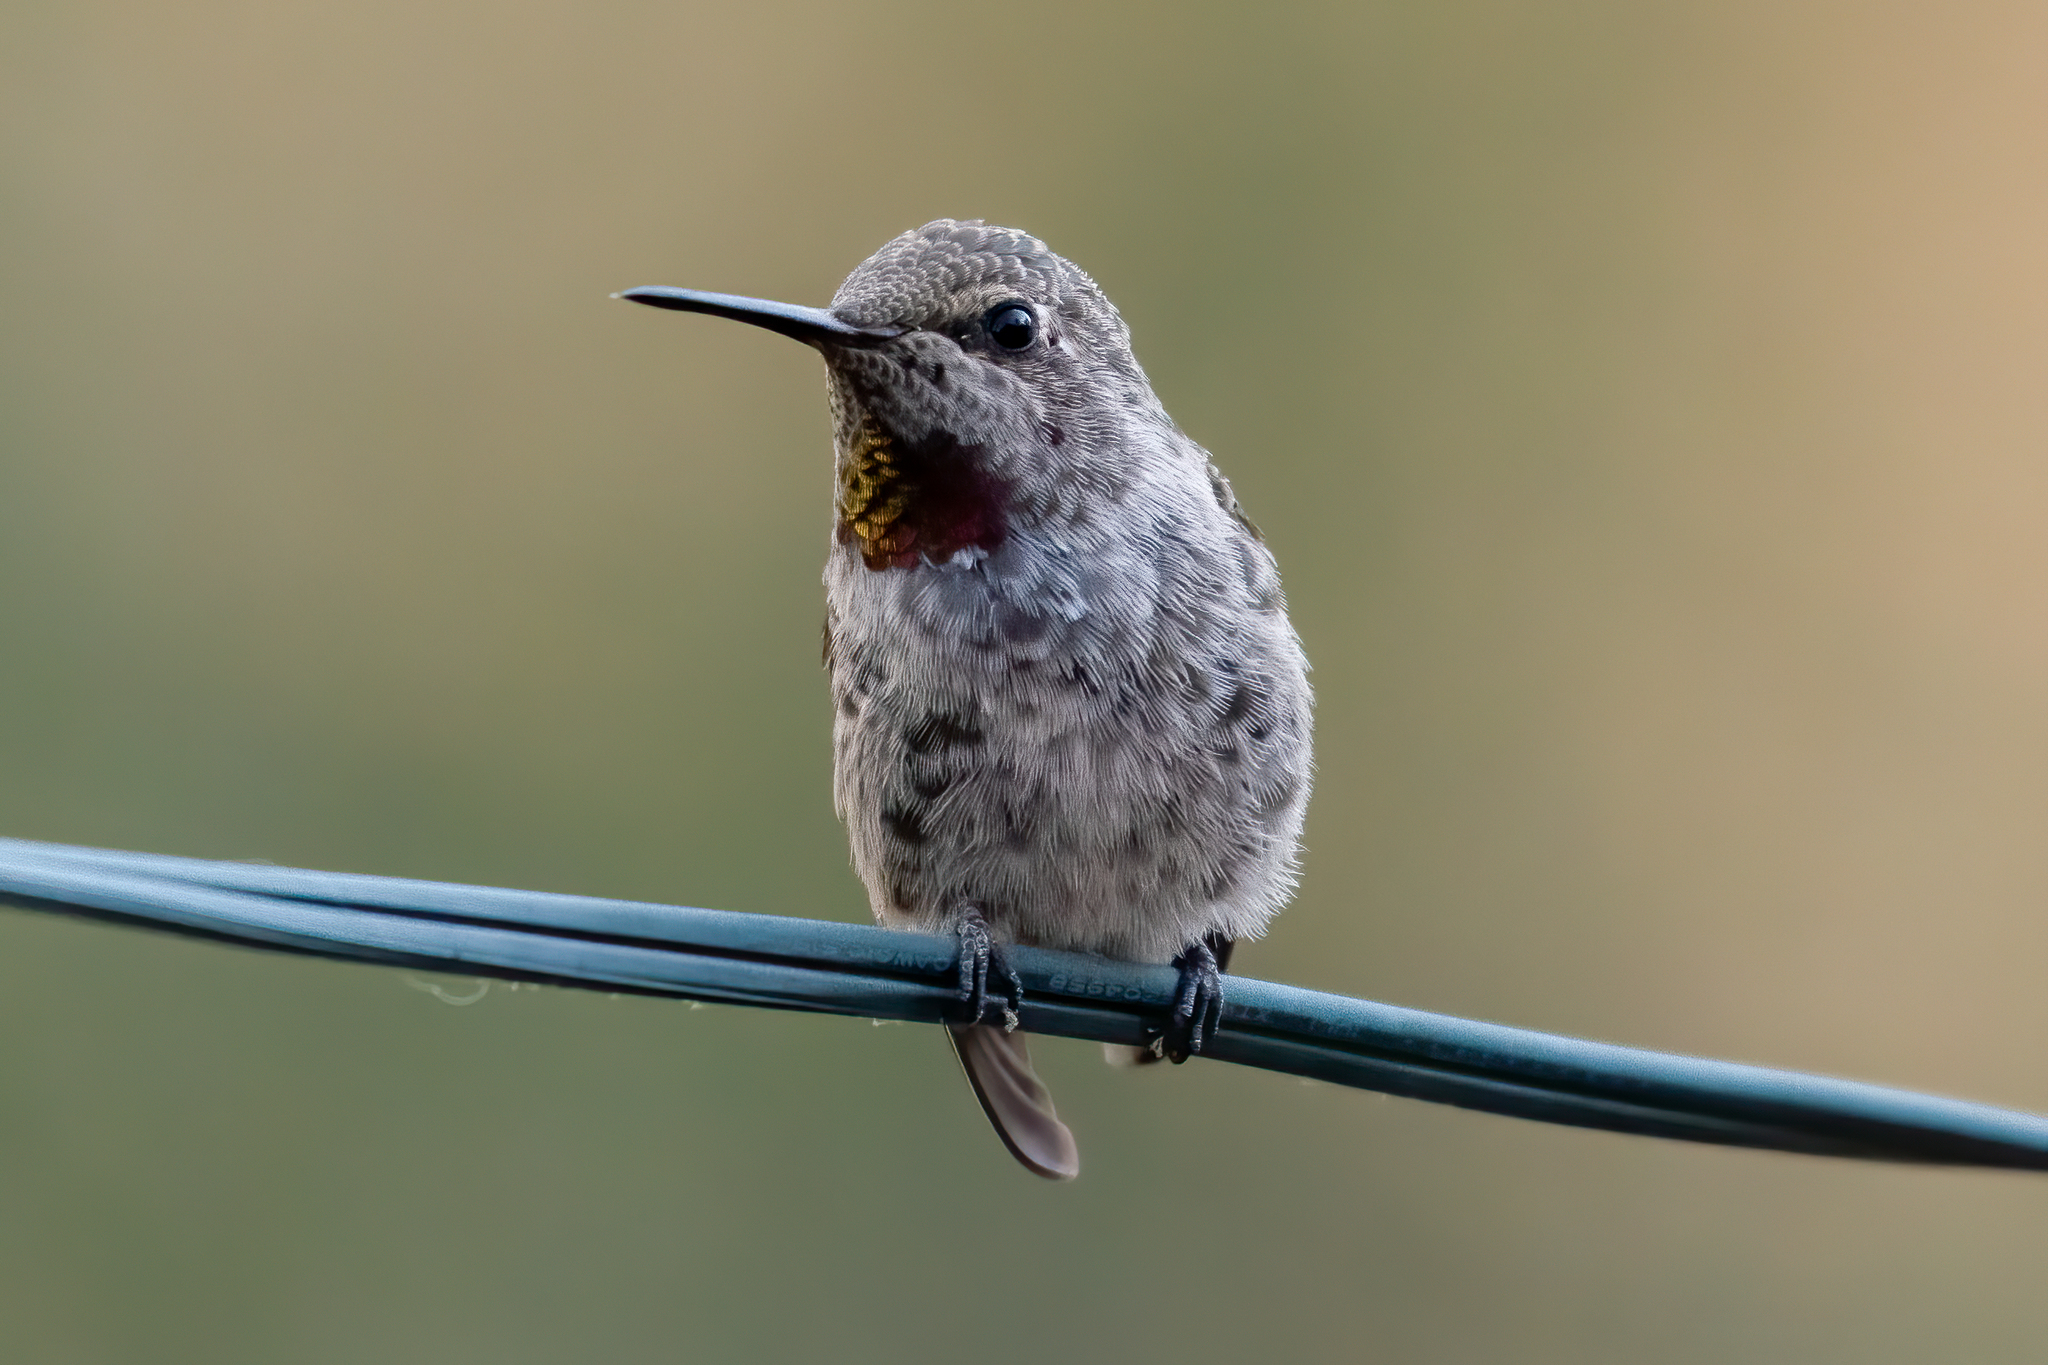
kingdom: Animalia
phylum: Chordata
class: Aves
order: Apodiformes
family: Trochilidae
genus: Calypte
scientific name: Calypte anna
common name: Anna's hummingbird
